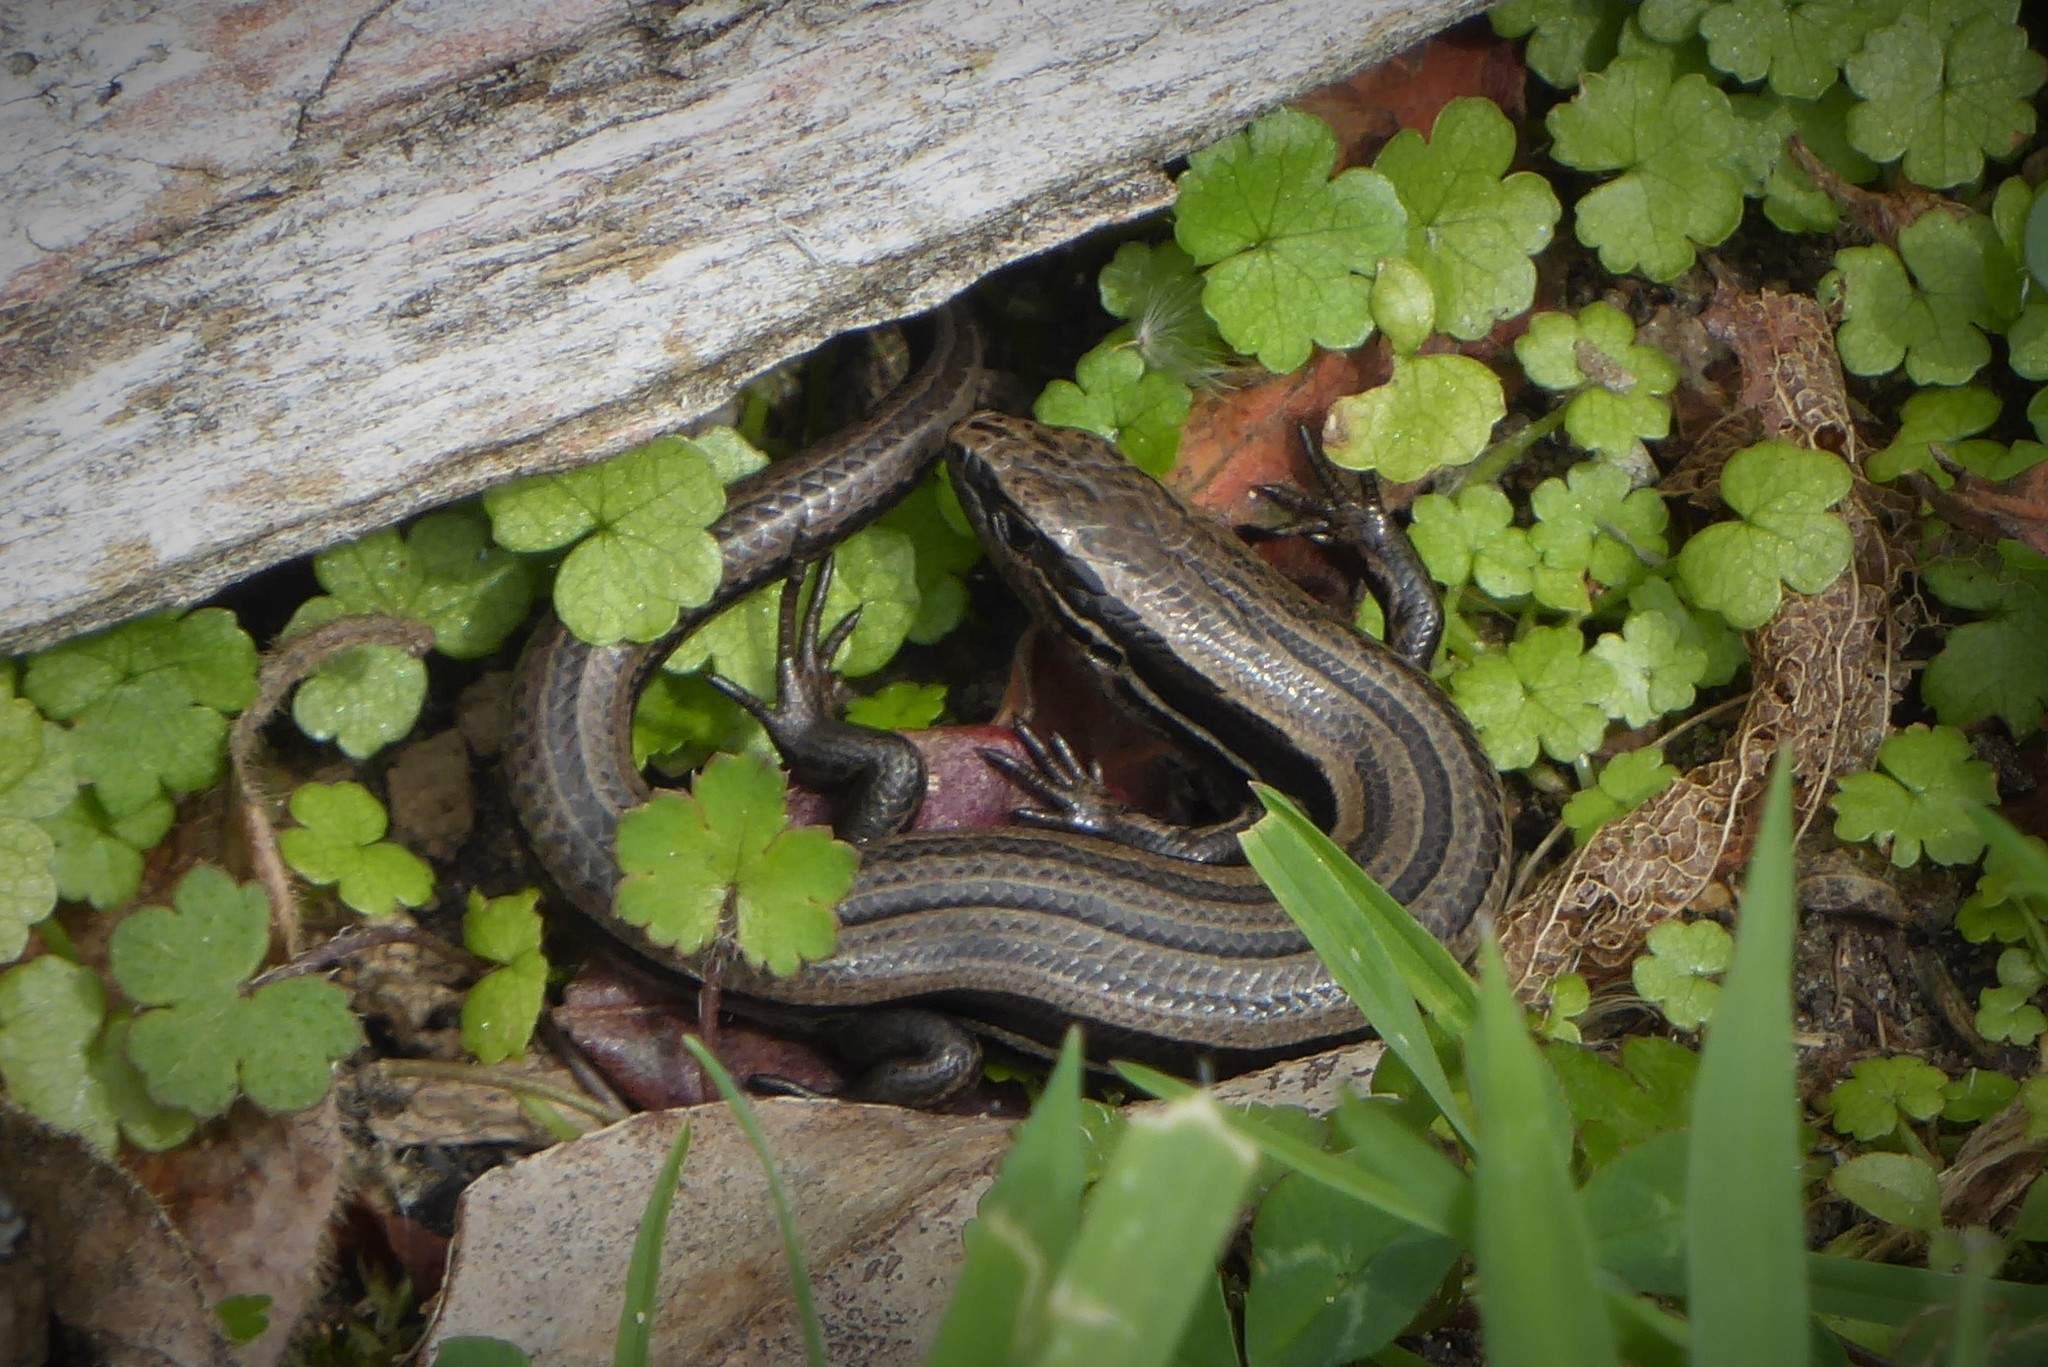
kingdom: Animalia
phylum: Chordata
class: Squamata
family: Scincidae
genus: Oligosoma
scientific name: Oligosoma polychroma
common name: Common new zealand skink
